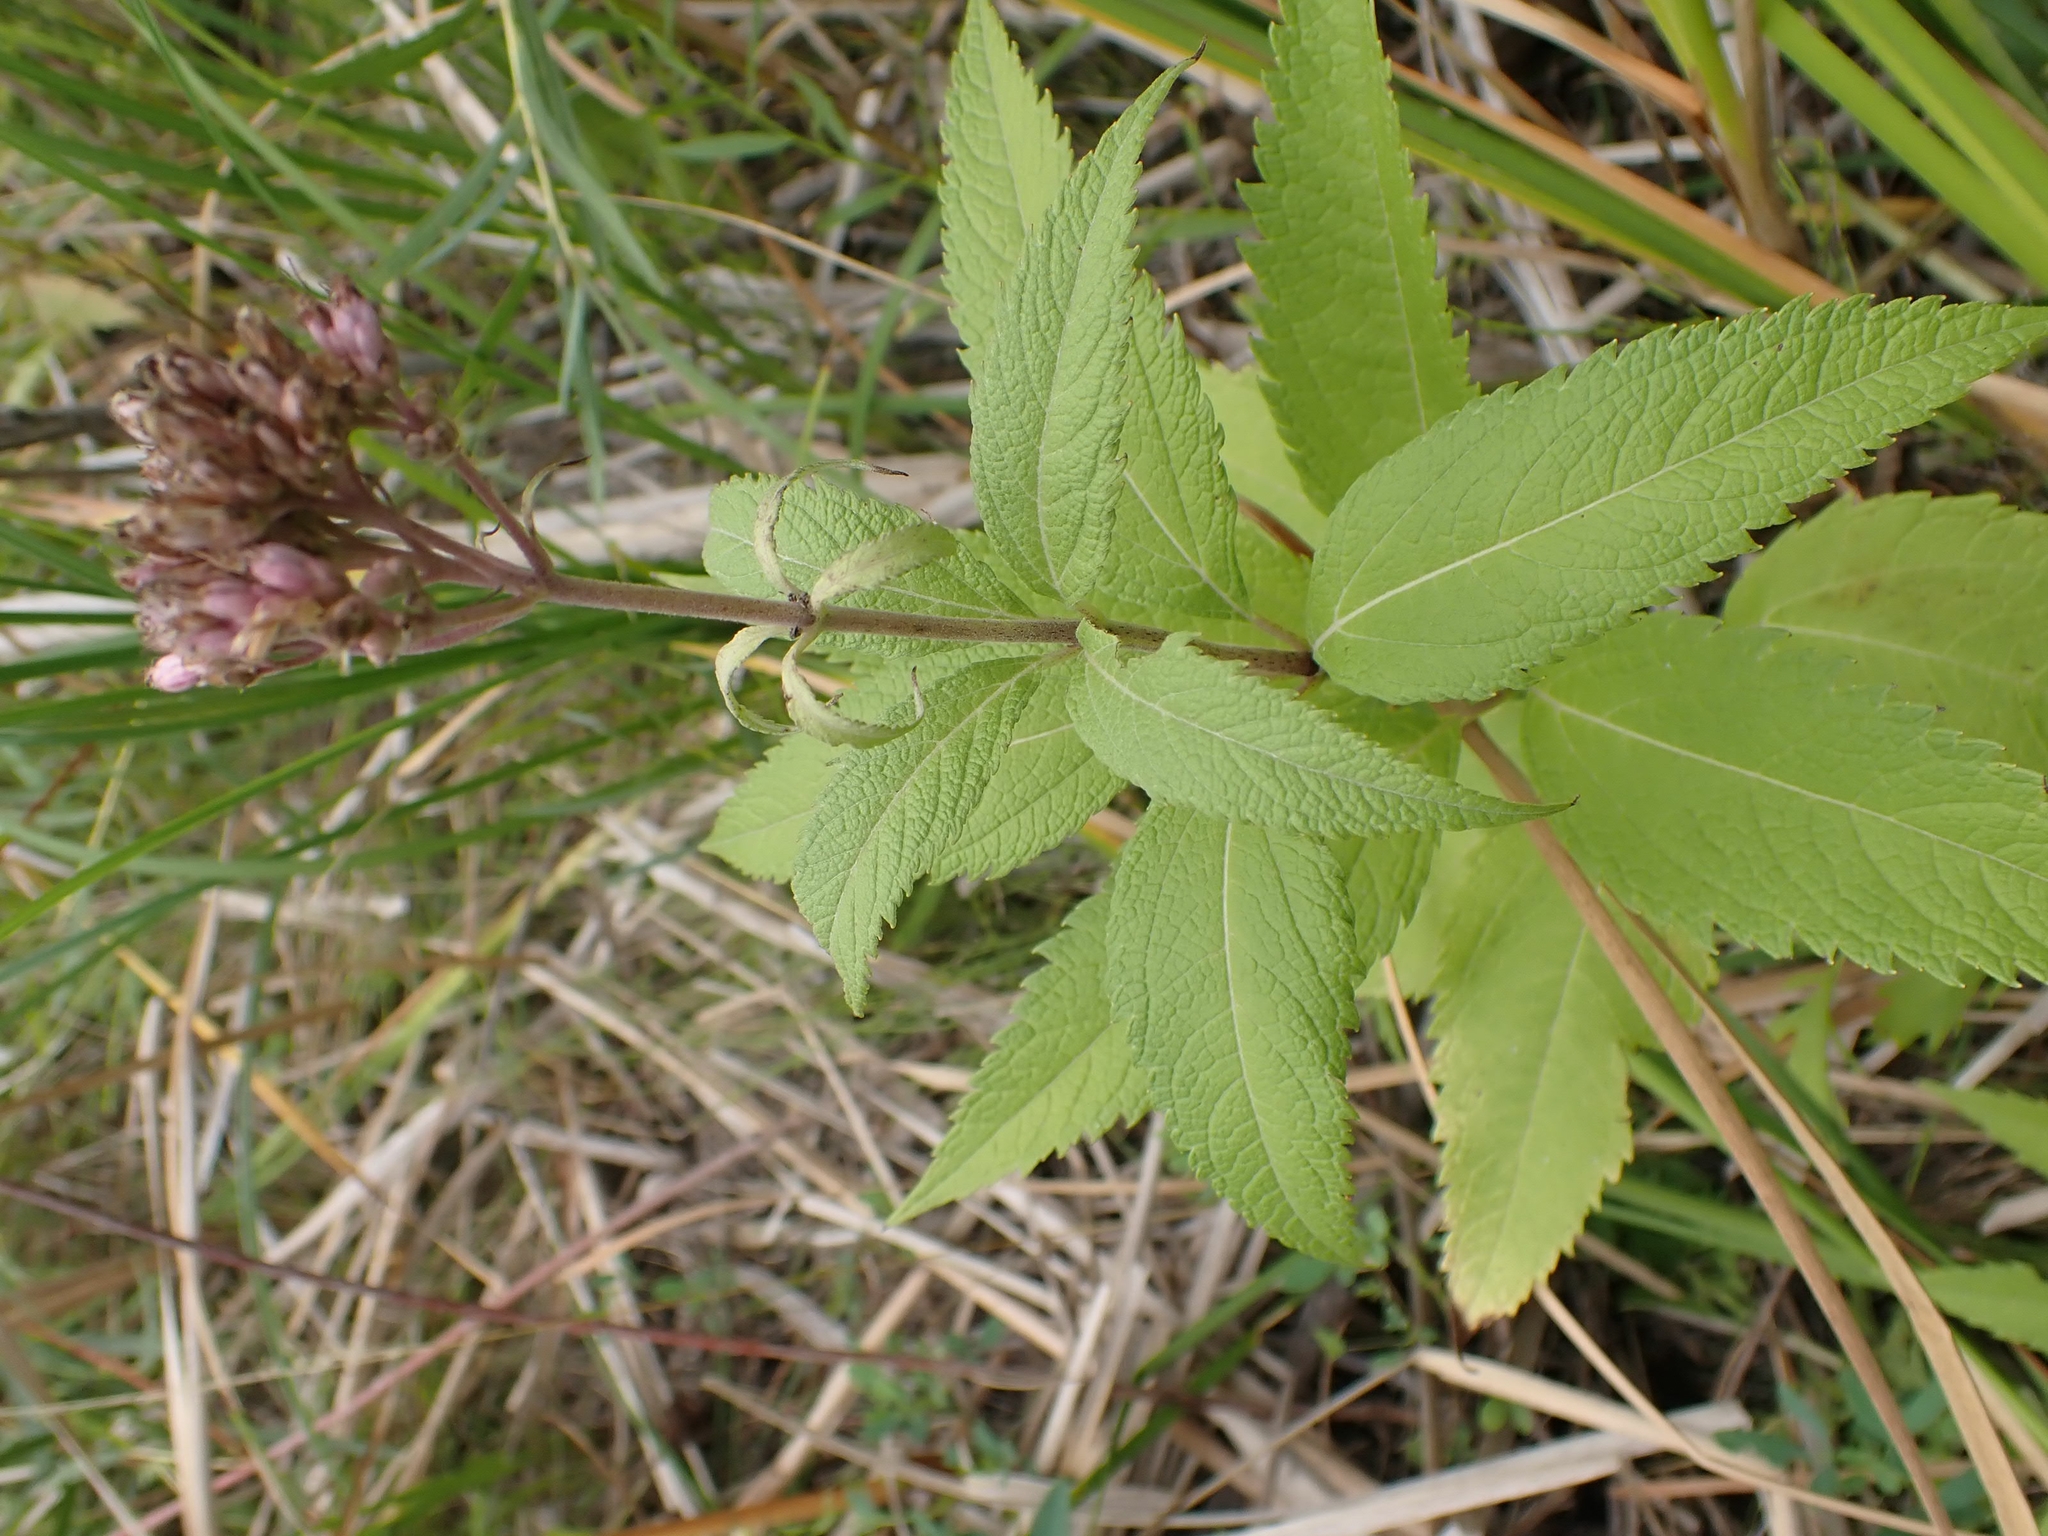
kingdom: Plantae
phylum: Tracheophyta
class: Magnoliopsida
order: Asterales
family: Asteraceae
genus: Eutrochium
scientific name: Eutrochium maculatum
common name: Spotted joe pye weed
